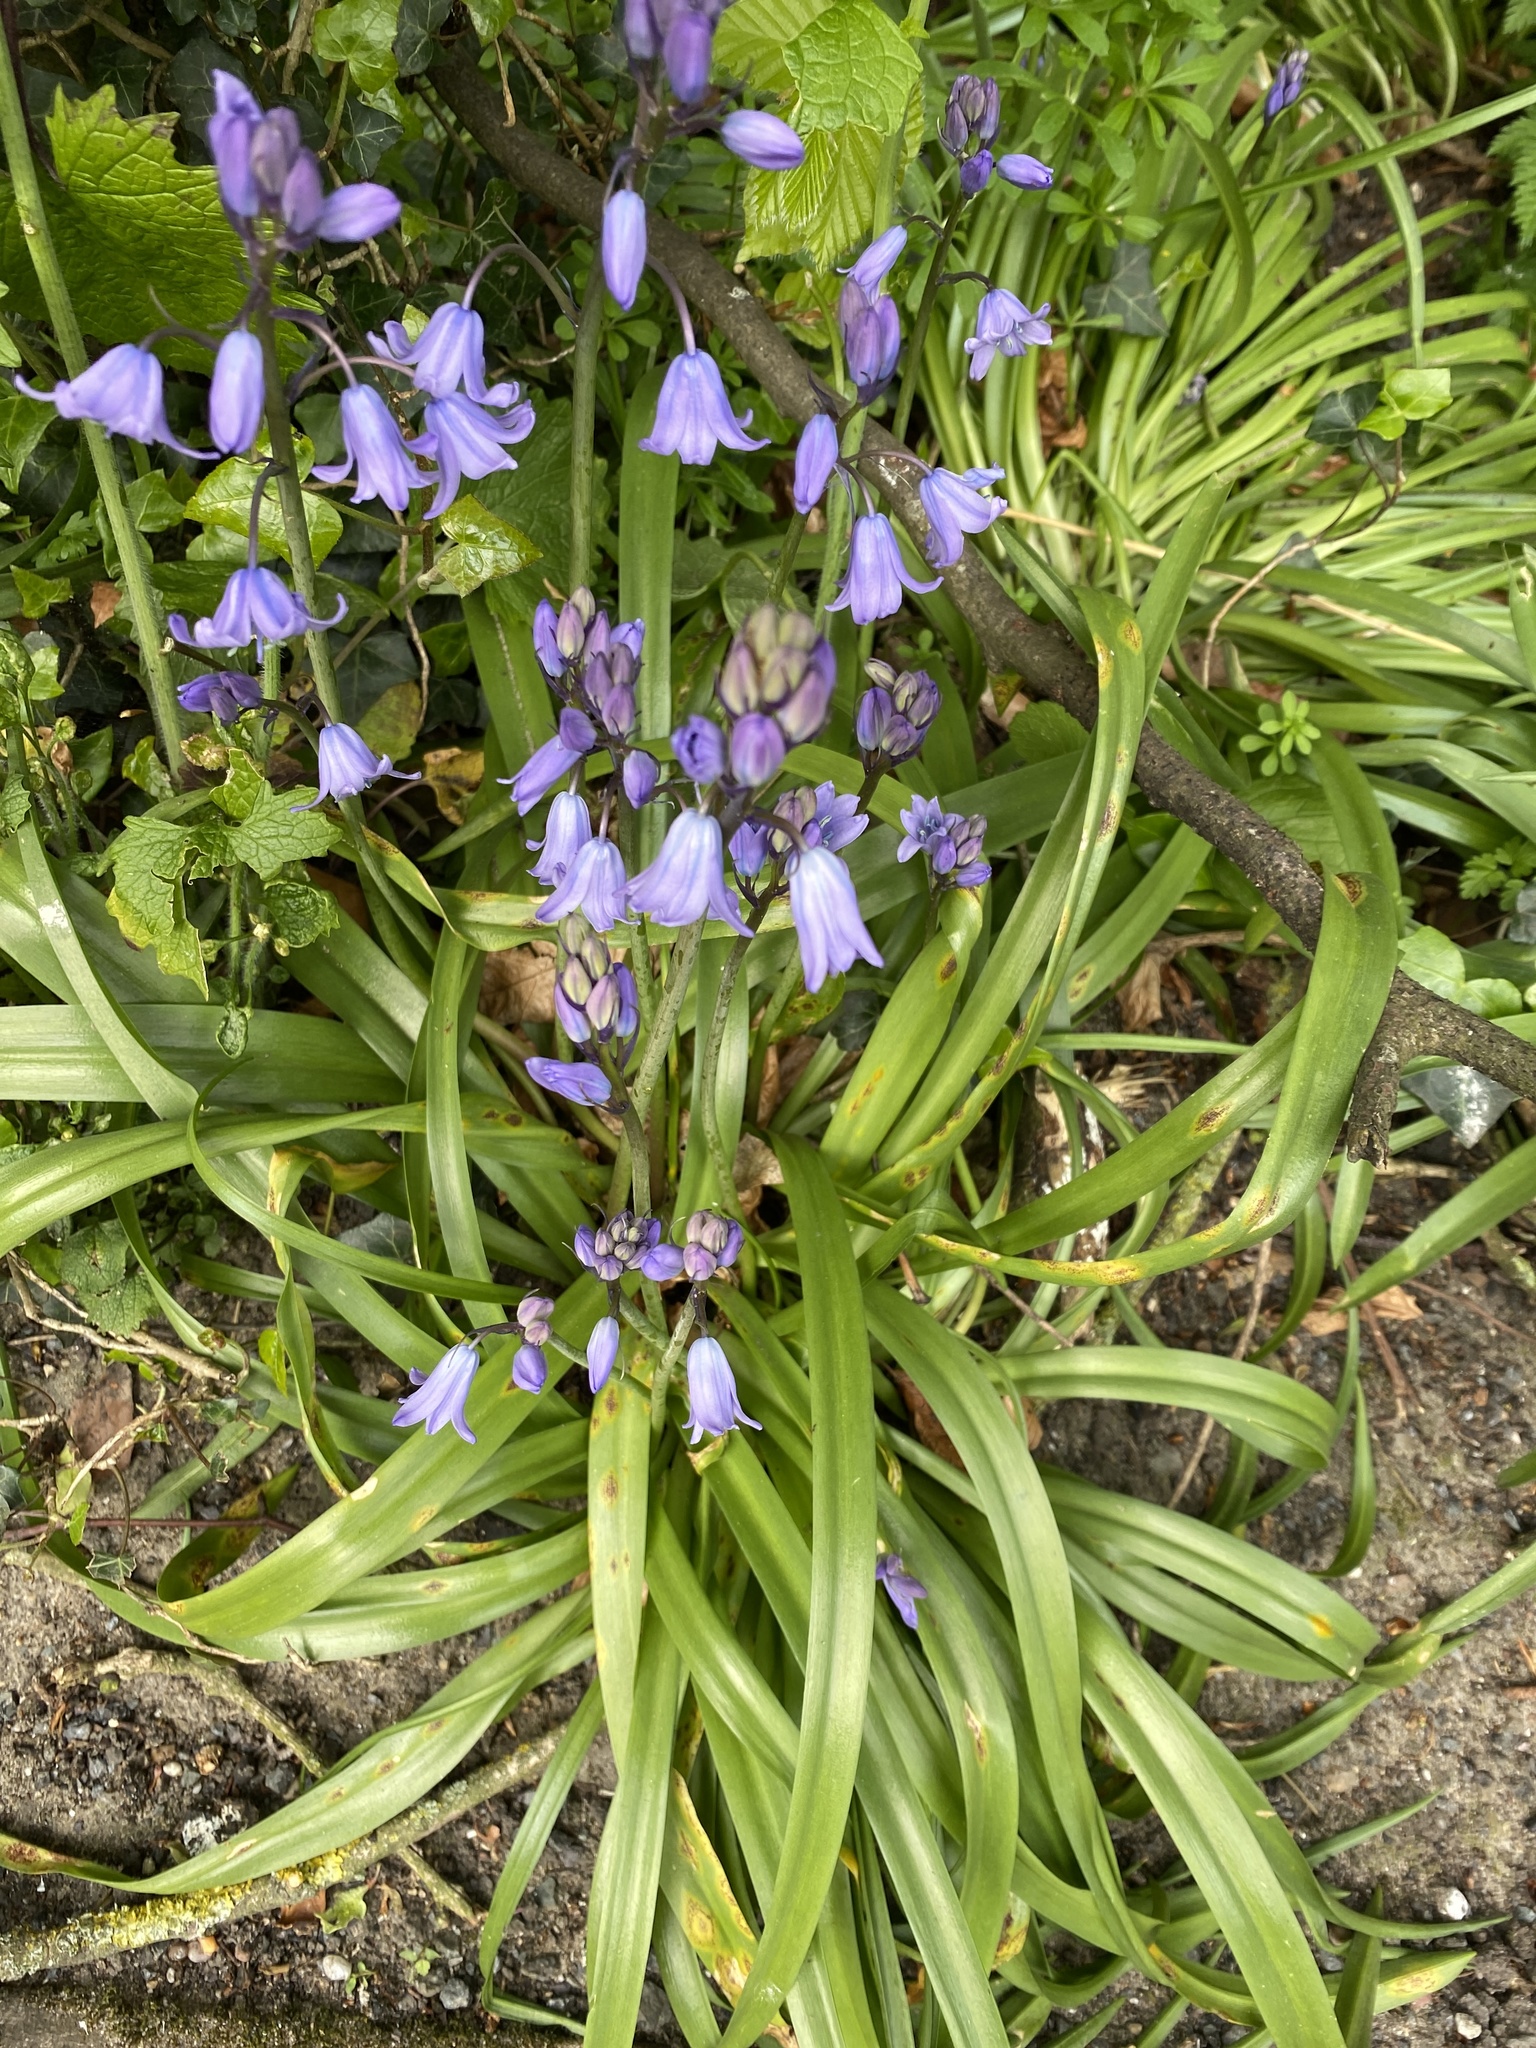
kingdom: Plantae
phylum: Tracheophyta
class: Liliopsida
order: Asparagales
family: Asparagaceae
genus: Hyacinthoides
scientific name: Hyacinthoides hispanica
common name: Spanish bluebell
